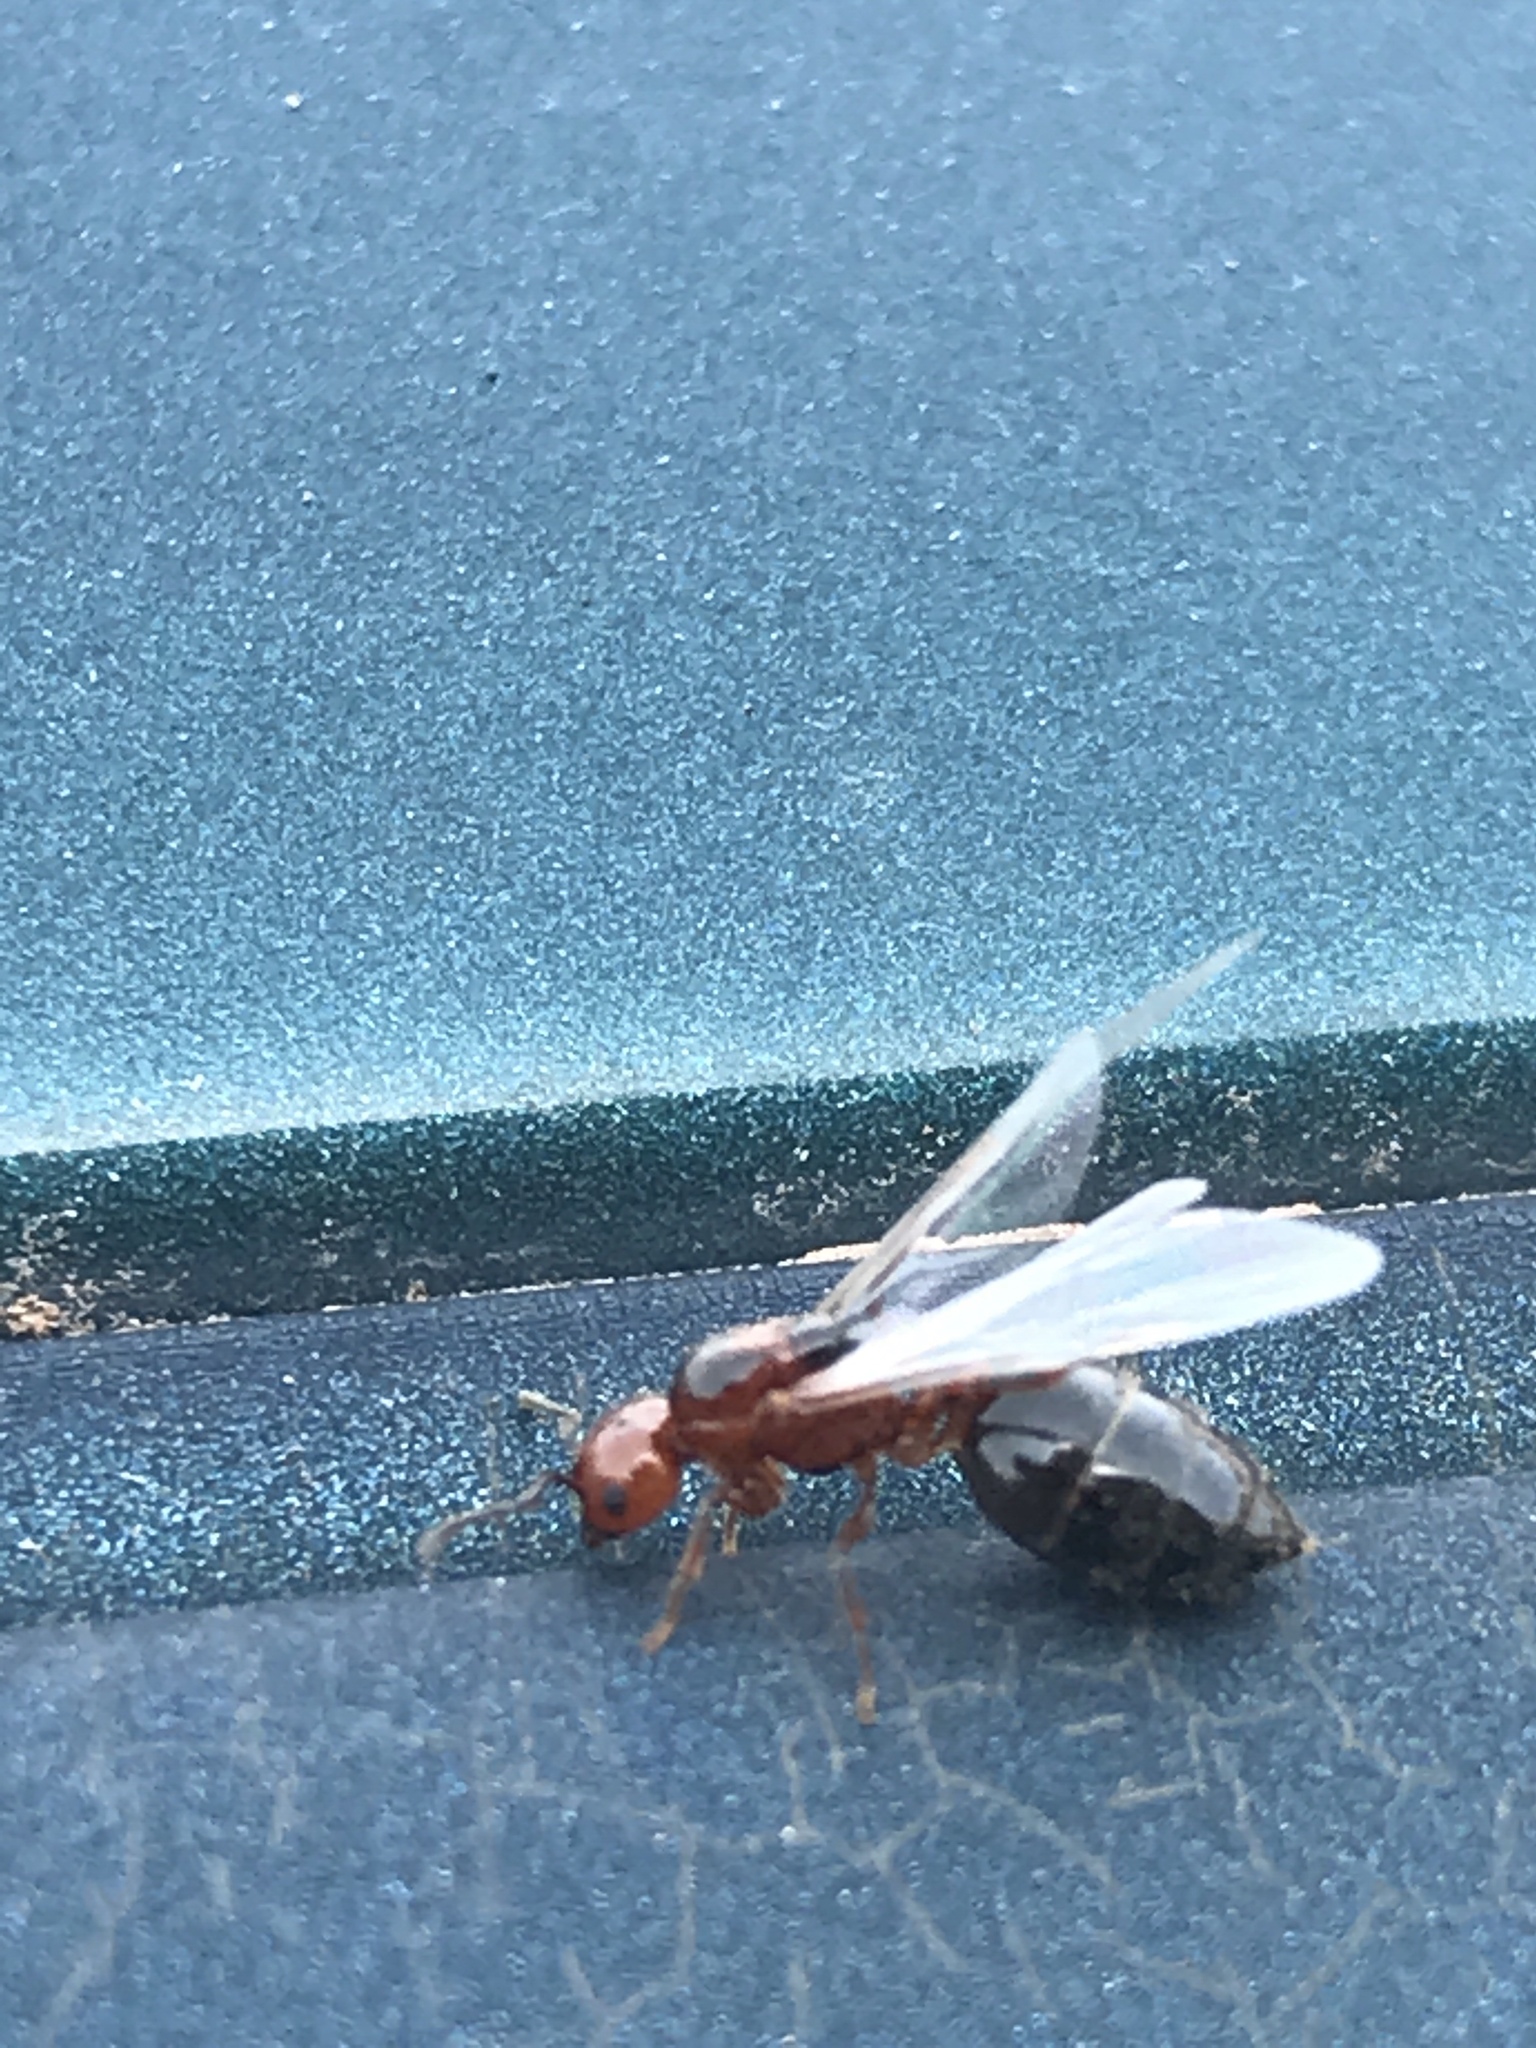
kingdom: Animalia
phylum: Arthropoda
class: Insecta
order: Hymenoptera
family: Formicidae
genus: Crematogaster
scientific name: Crematogaster laeviuscula
